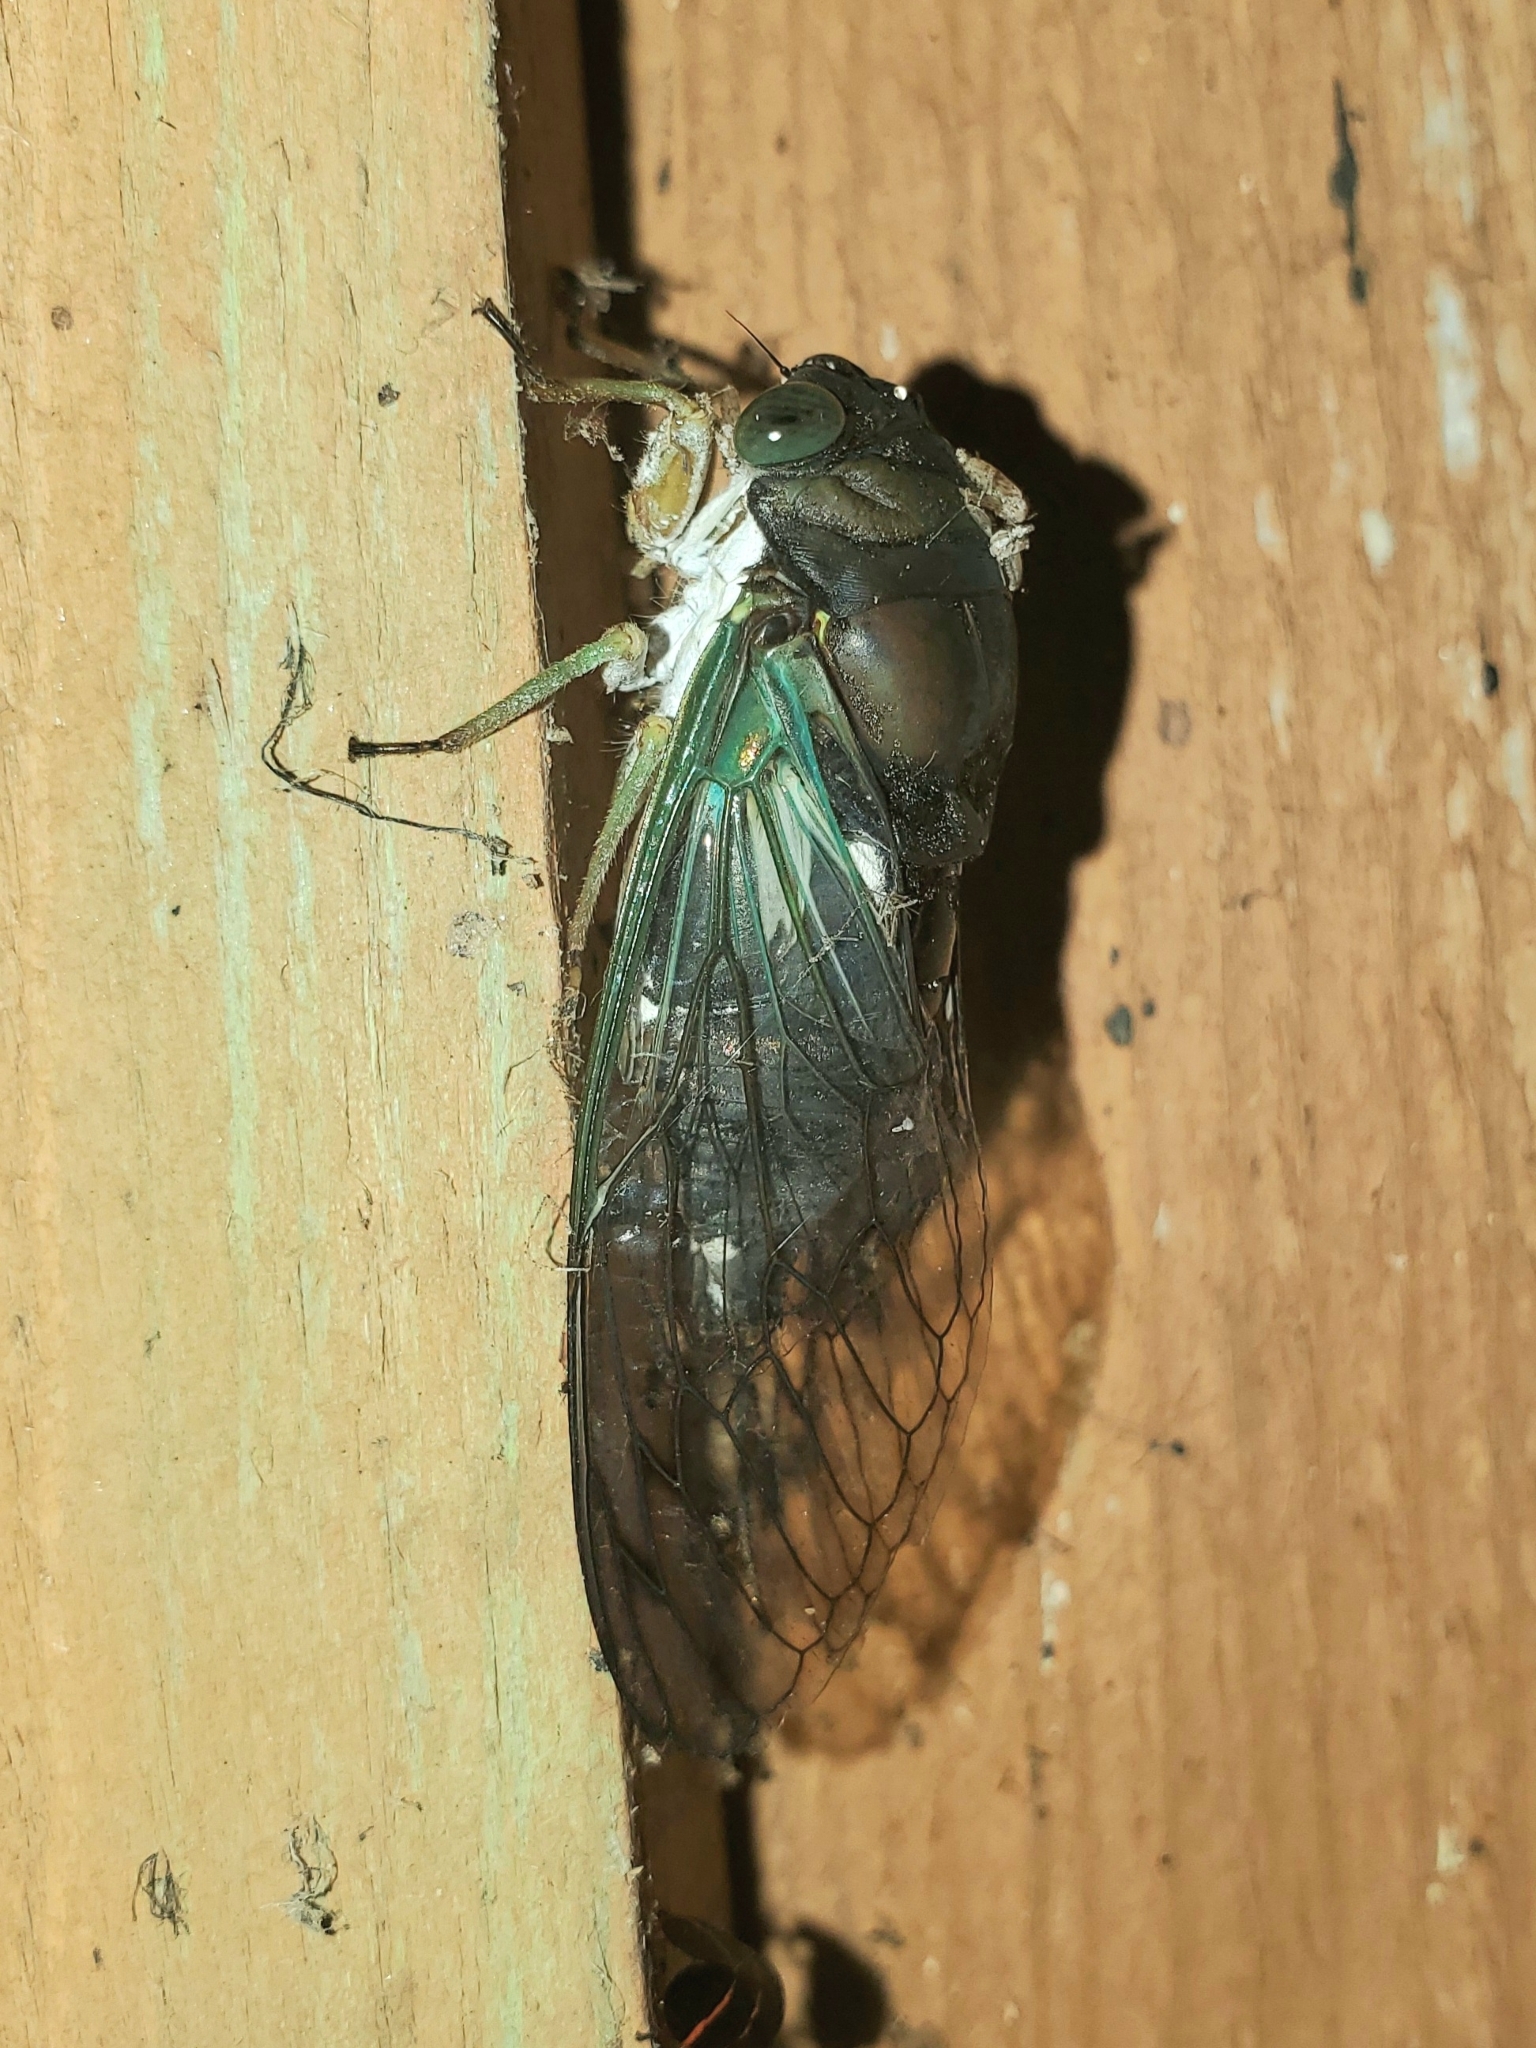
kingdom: Animalia
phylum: Arthropoda
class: Insecta
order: Hemiptera
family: Cicadidae
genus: Neotibicen
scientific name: Neotibicen tibicen
